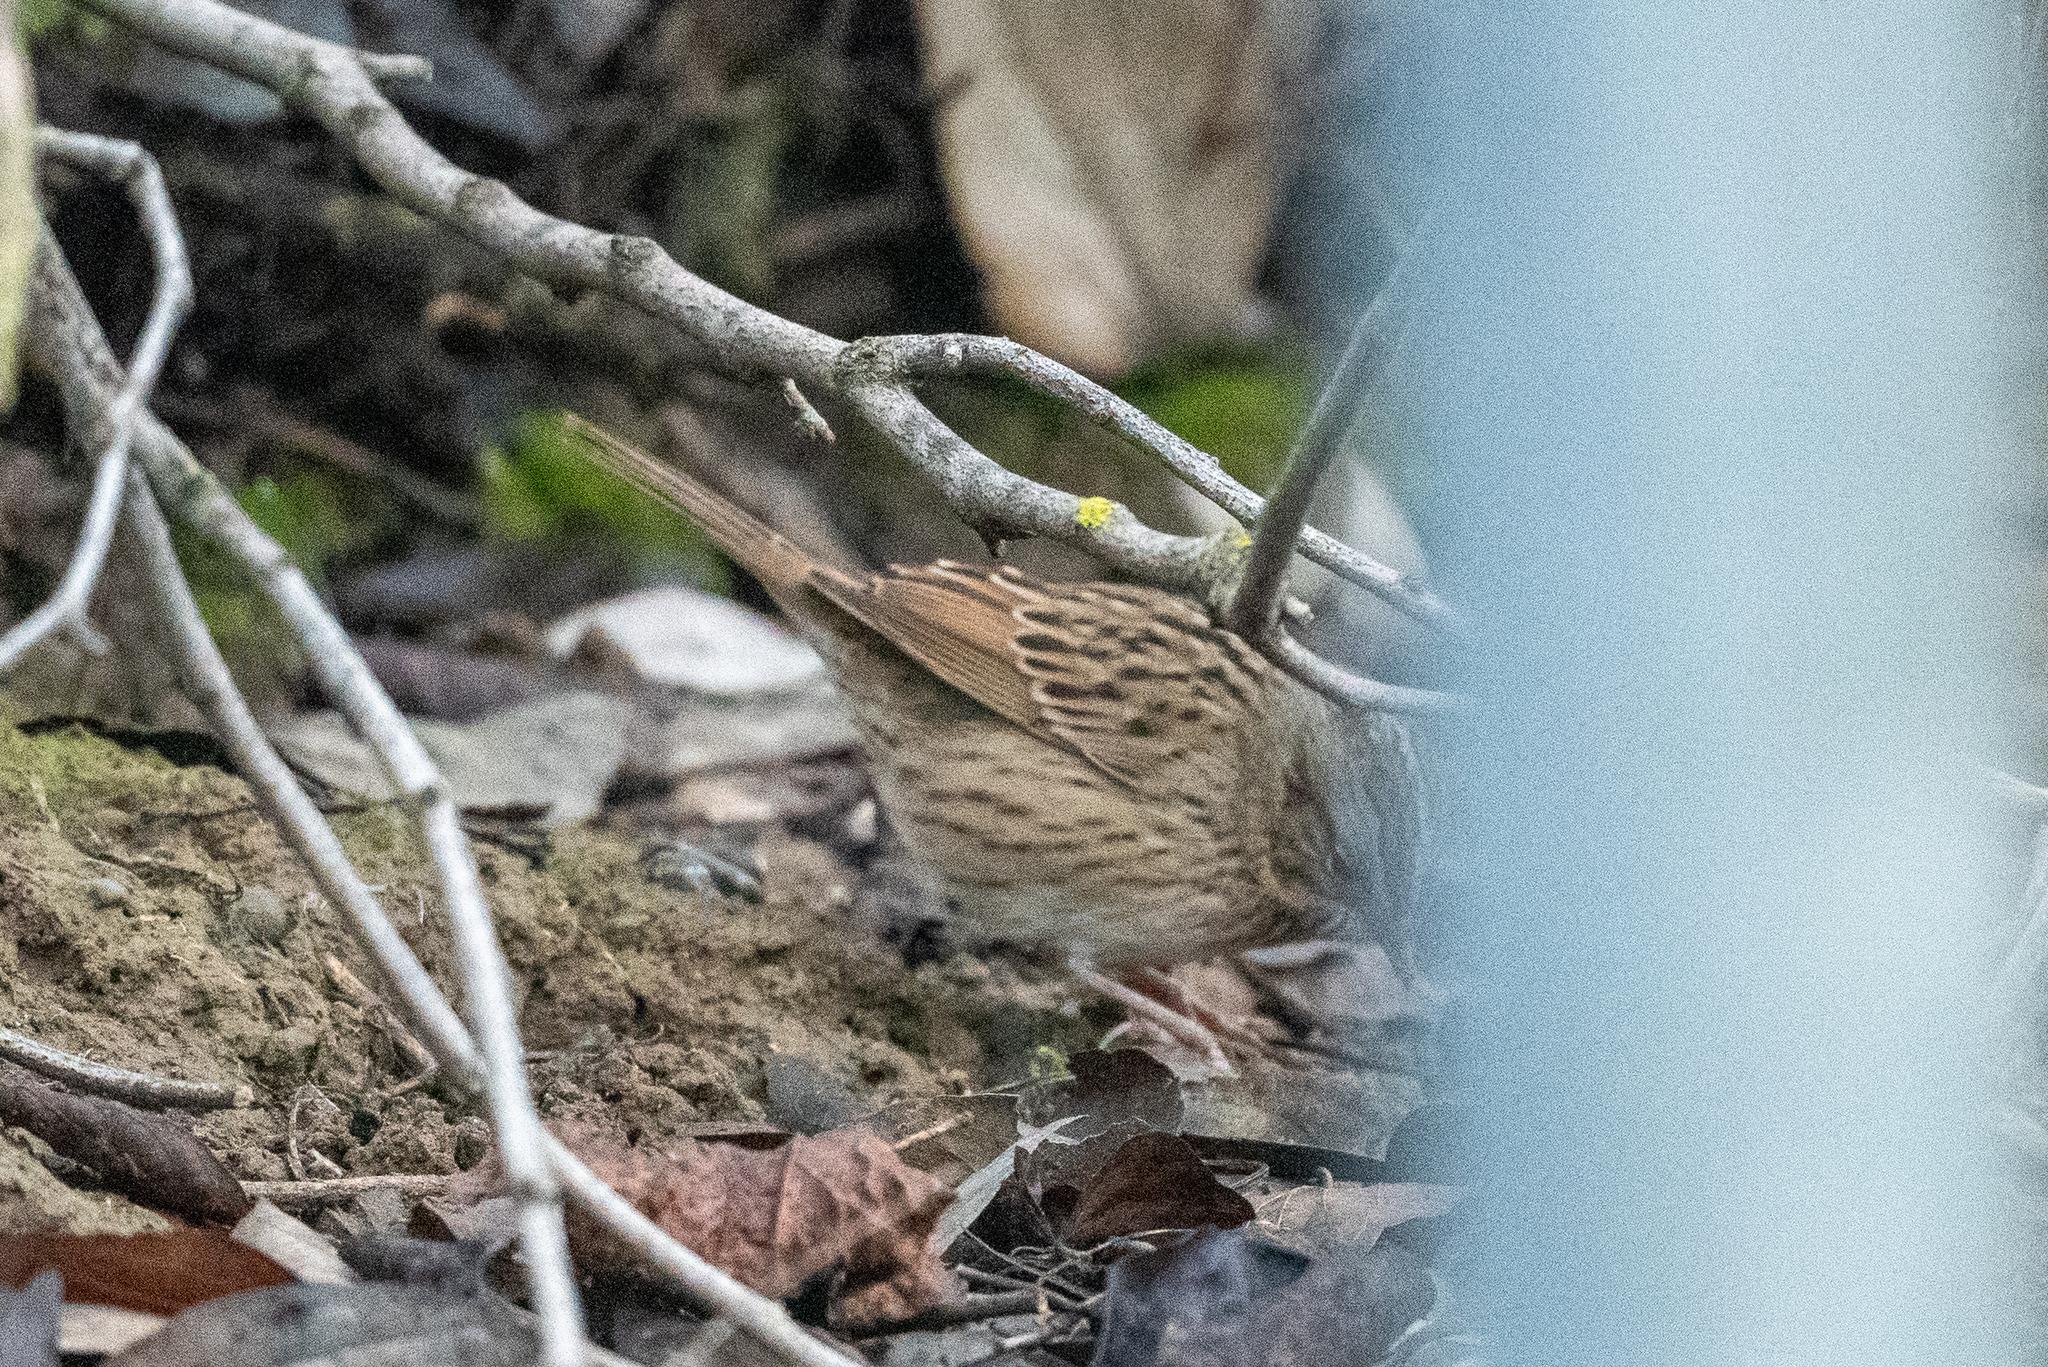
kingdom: Animalia
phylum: Chordata
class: Aves
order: Passeriformes
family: Passerellidae
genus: Melospiza
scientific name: Melospiza lincolnii
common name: Lincoln's sparrow
